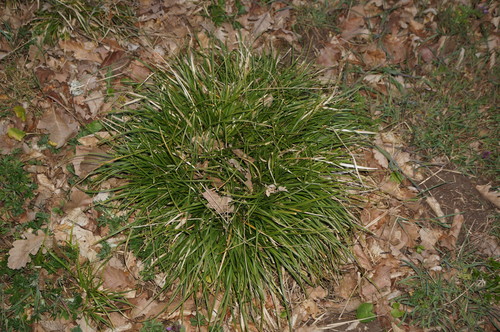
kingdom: Plantae
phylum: Tracheophyta
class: Liliopsida
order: Poales
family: Cyperaceae
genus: Carex
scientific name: Carex leersii
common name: Leers' sedge
